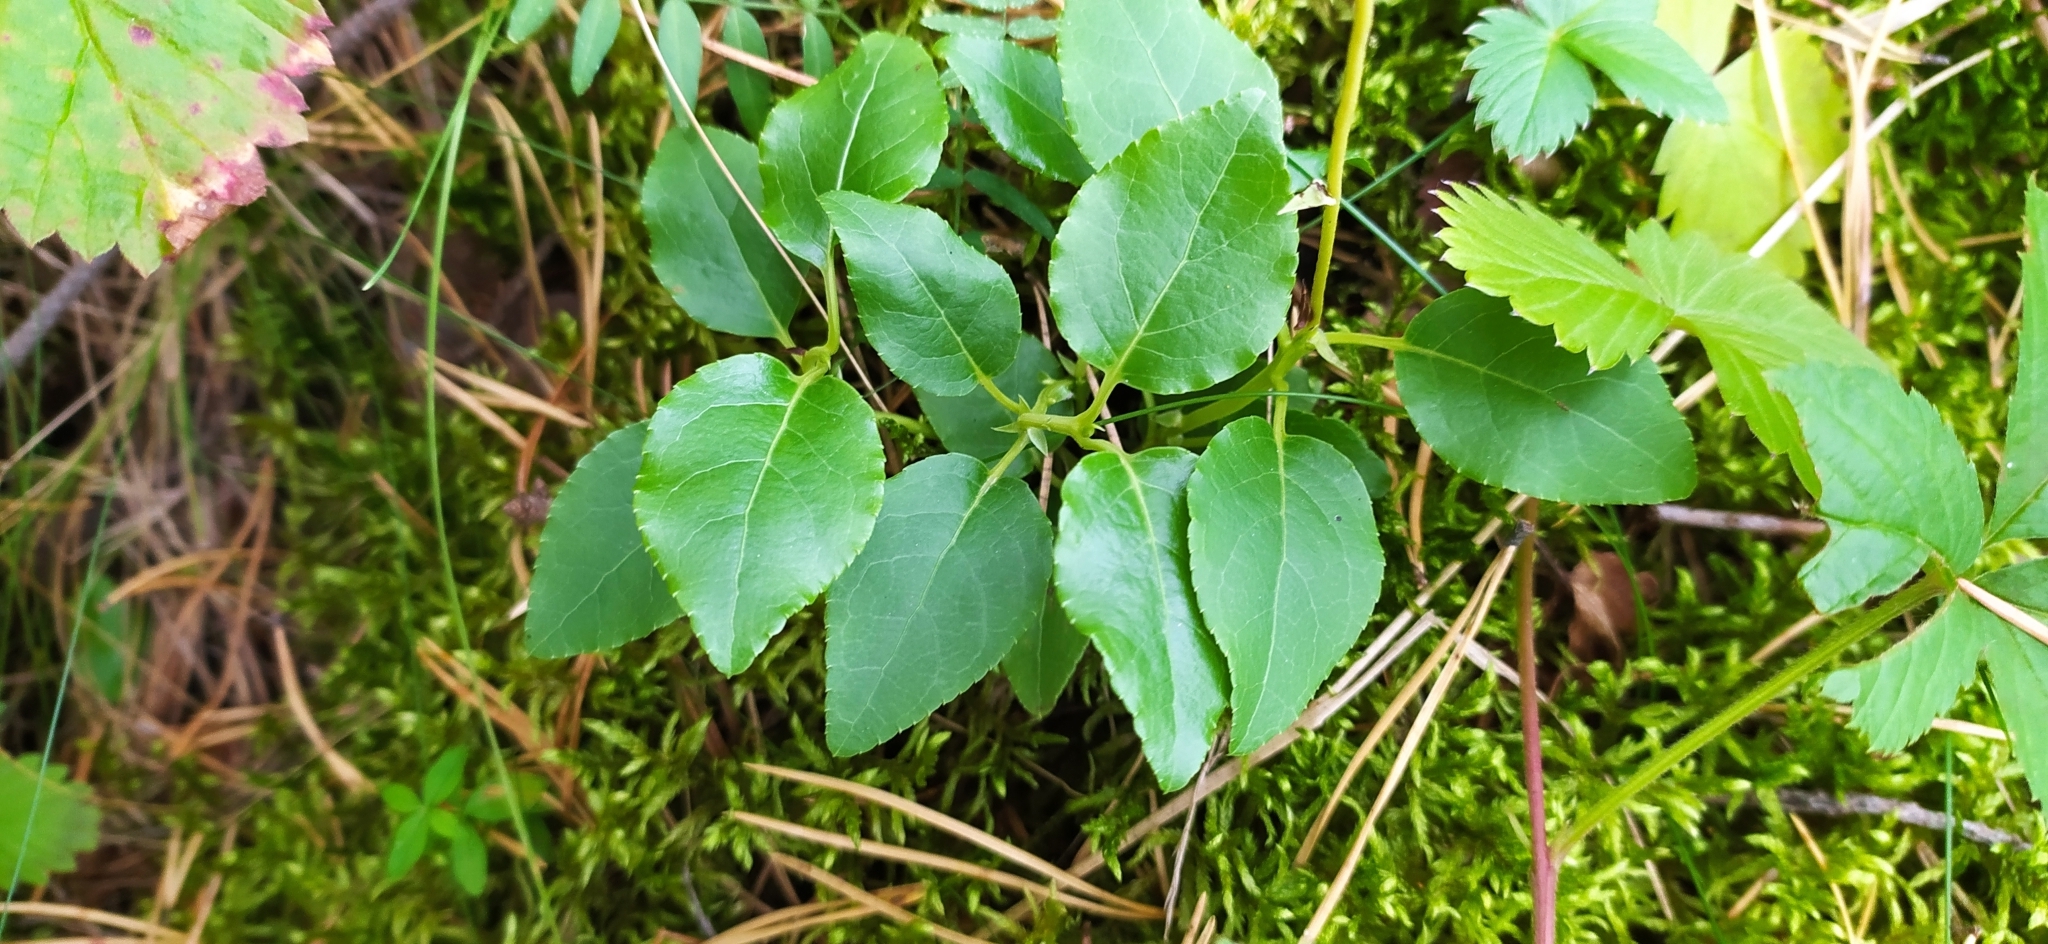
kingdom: Plantae
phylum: Tracheophyta
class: Magnoliopsida
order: Ericales
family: Ericaceae
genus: Orthilia
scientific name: Orthilia secunda
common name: One-sided orthilia
